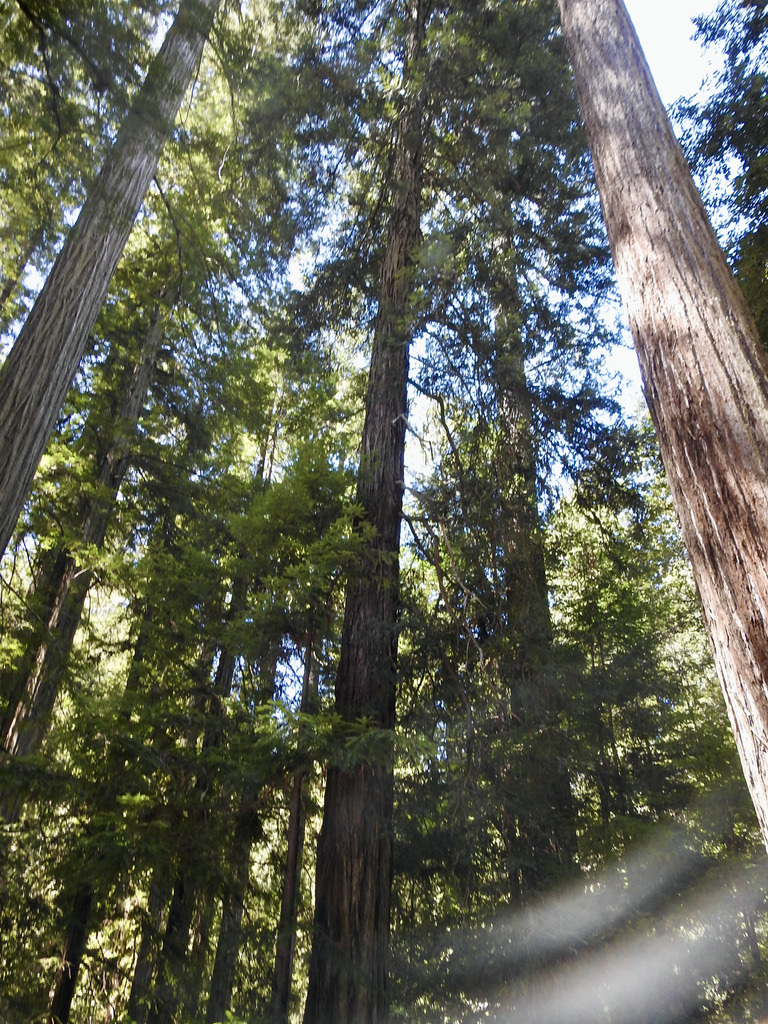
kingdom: Plantae
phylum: Tracheophyta
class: Pinopsida
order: Pinales
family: Cupressaceae
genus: Sequoia
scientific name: Sequoia sempervirens
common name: Coast redwood
